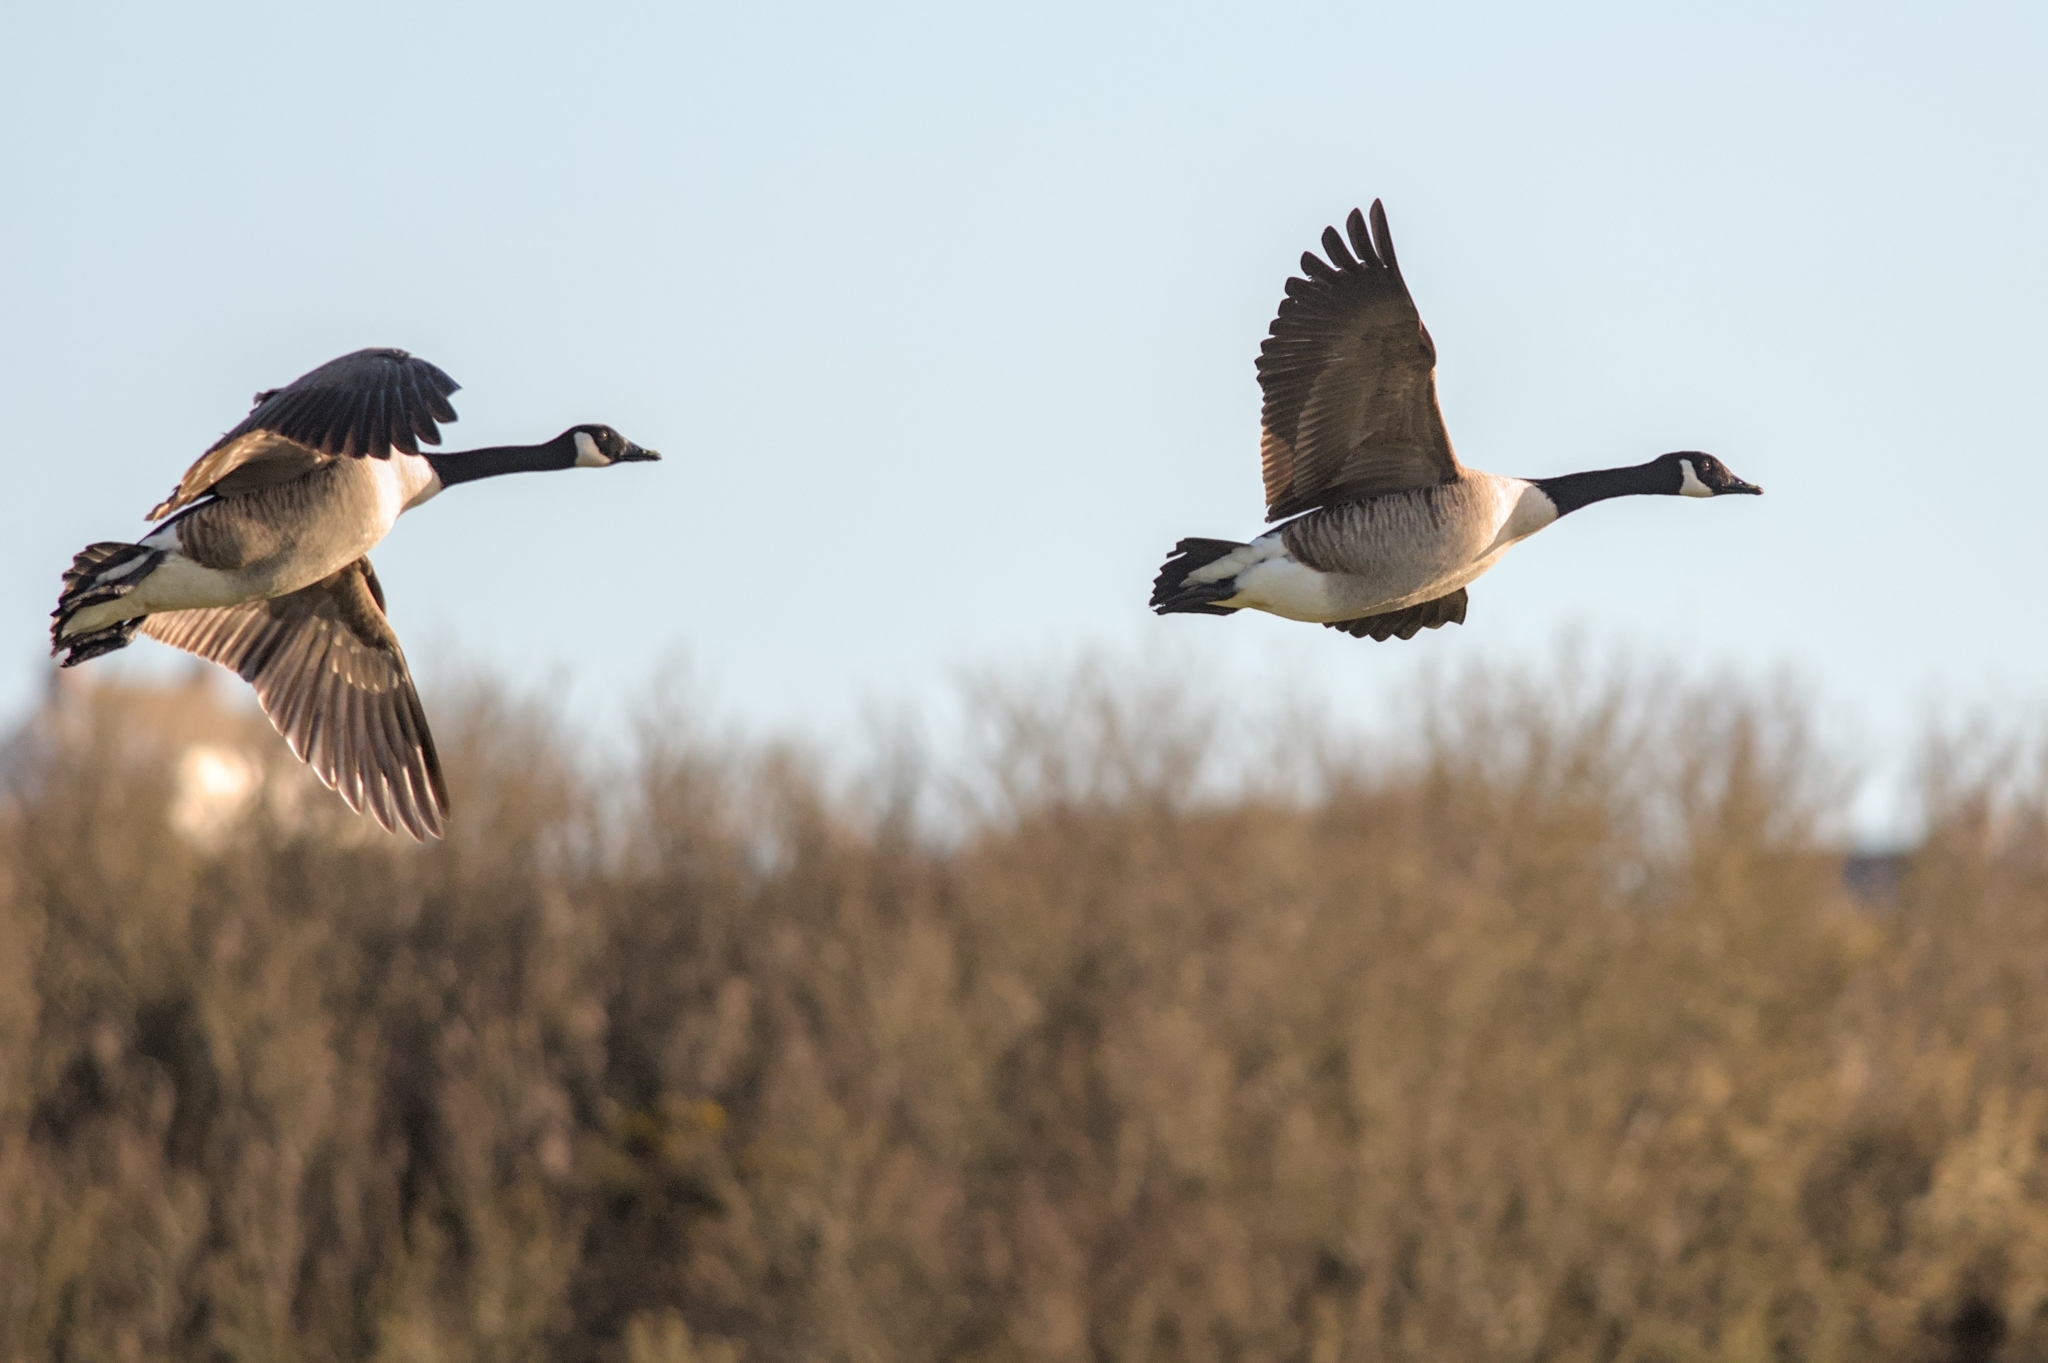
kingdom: Animalia
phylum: Chordata
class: Aves
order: Anseriformes
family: Anatidae
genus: Branta
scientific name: Branta canadensis
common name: Canada goose
